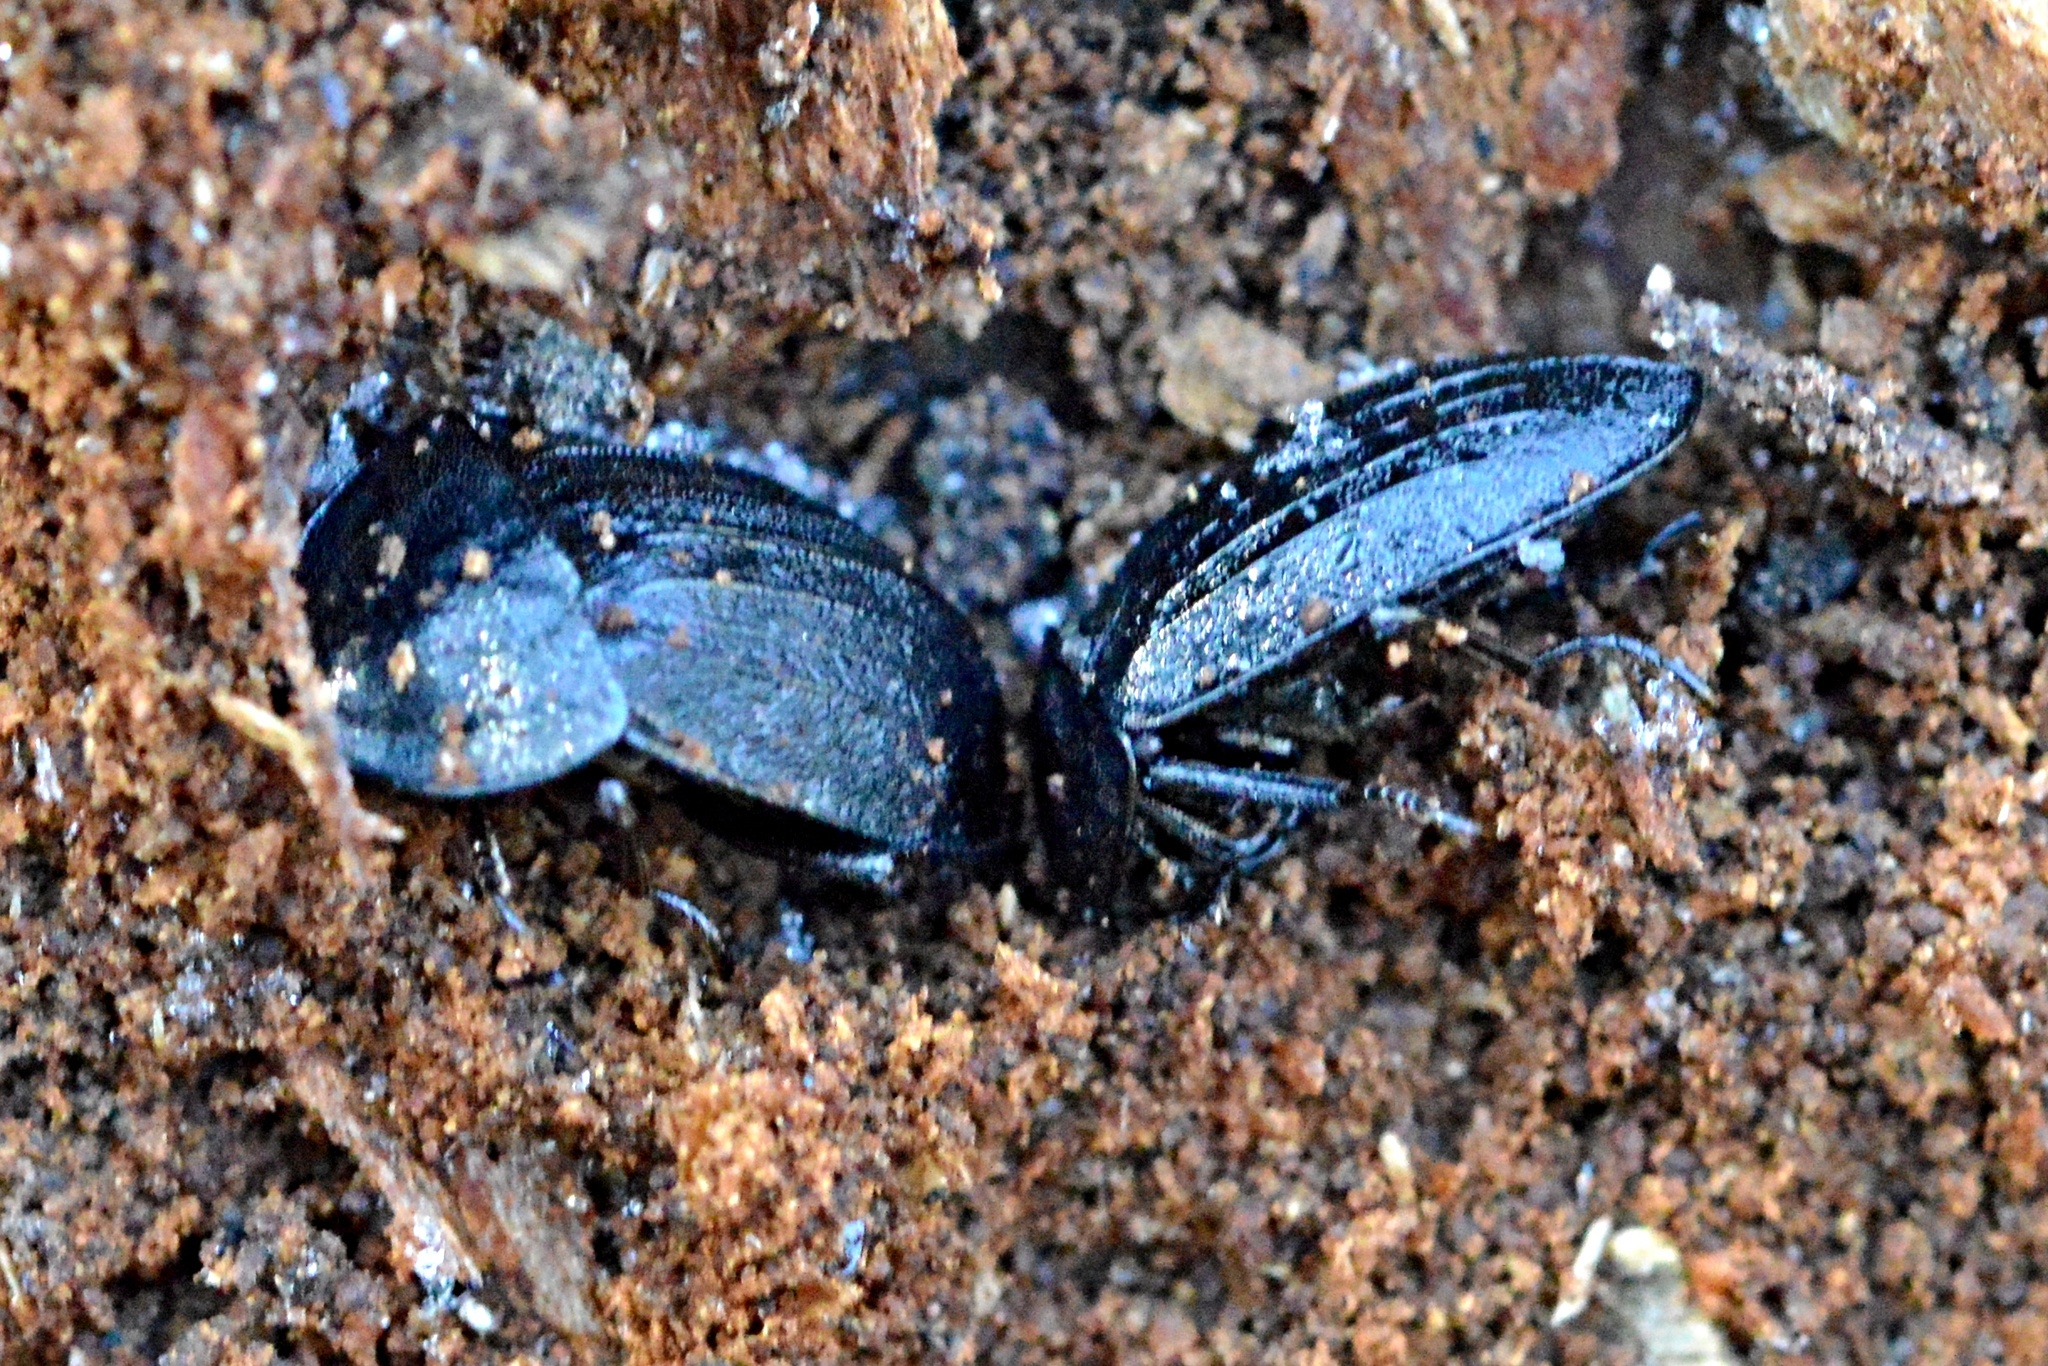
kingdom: Animalia
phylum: Arthropoda
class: Insecta
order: Coleoptera
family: Staphylinidae
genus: Silpha
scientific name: Silpha atrata
